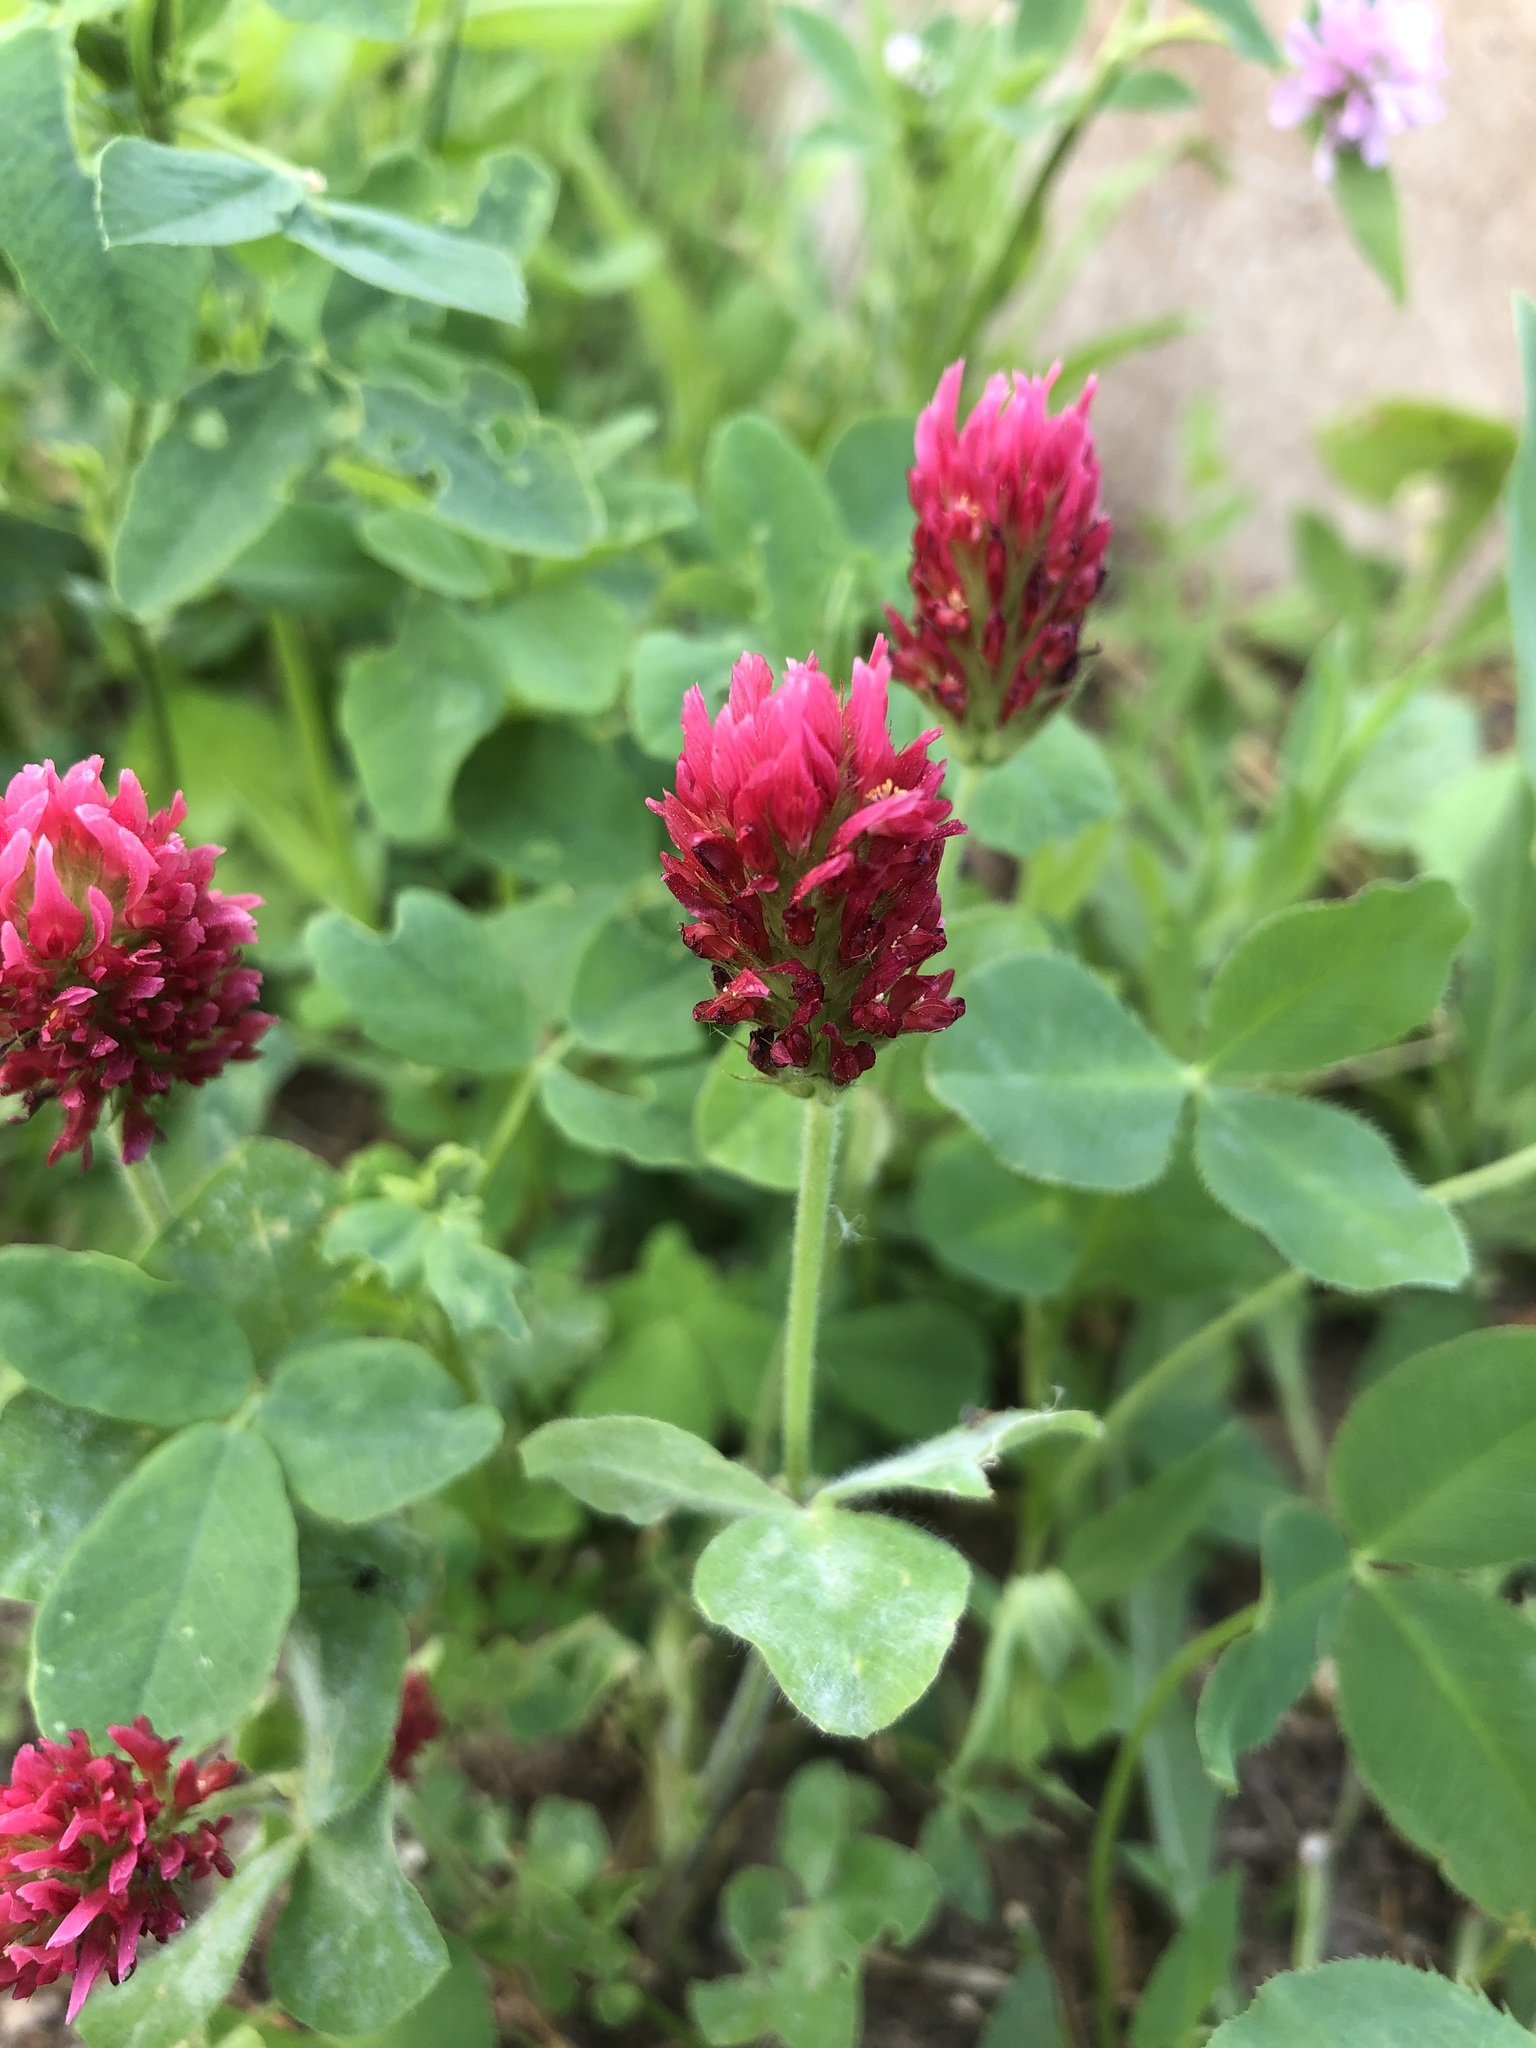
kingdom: Plantae
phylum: Tracheophyta
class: Magnoliopsida
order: Fabales
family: Fabaceae
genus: Trifolium
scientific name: Trifolium incarnatum
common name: Crimson clover
